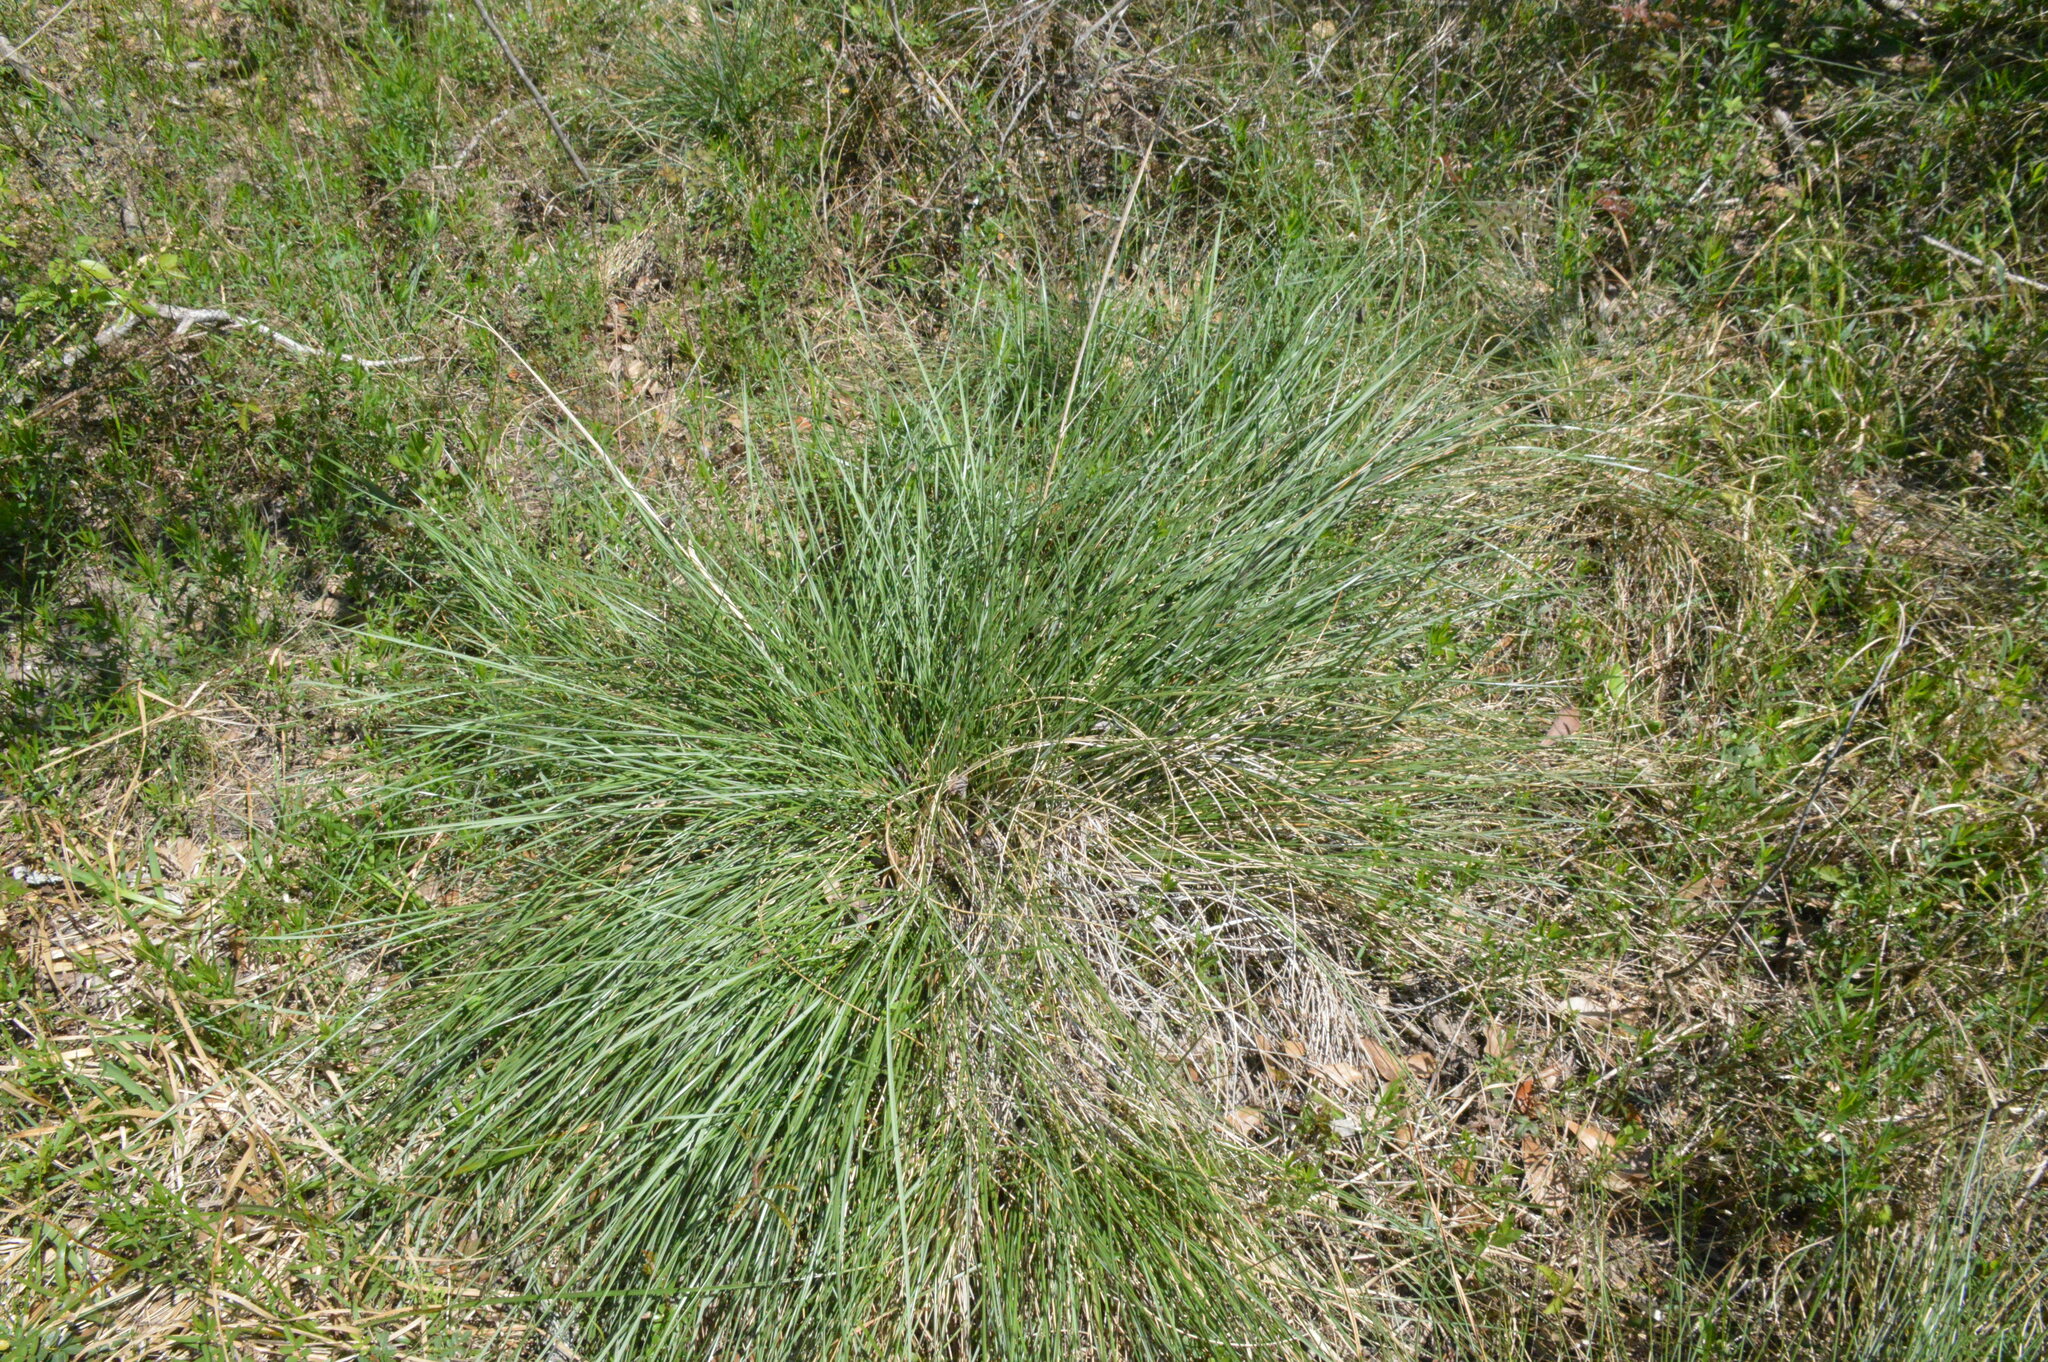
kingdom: Plantae
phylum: Tracheophyta
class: Liliopsida
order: Poales
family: Poaceae
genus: Sporobolus
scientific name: Sporobolus spartinae
